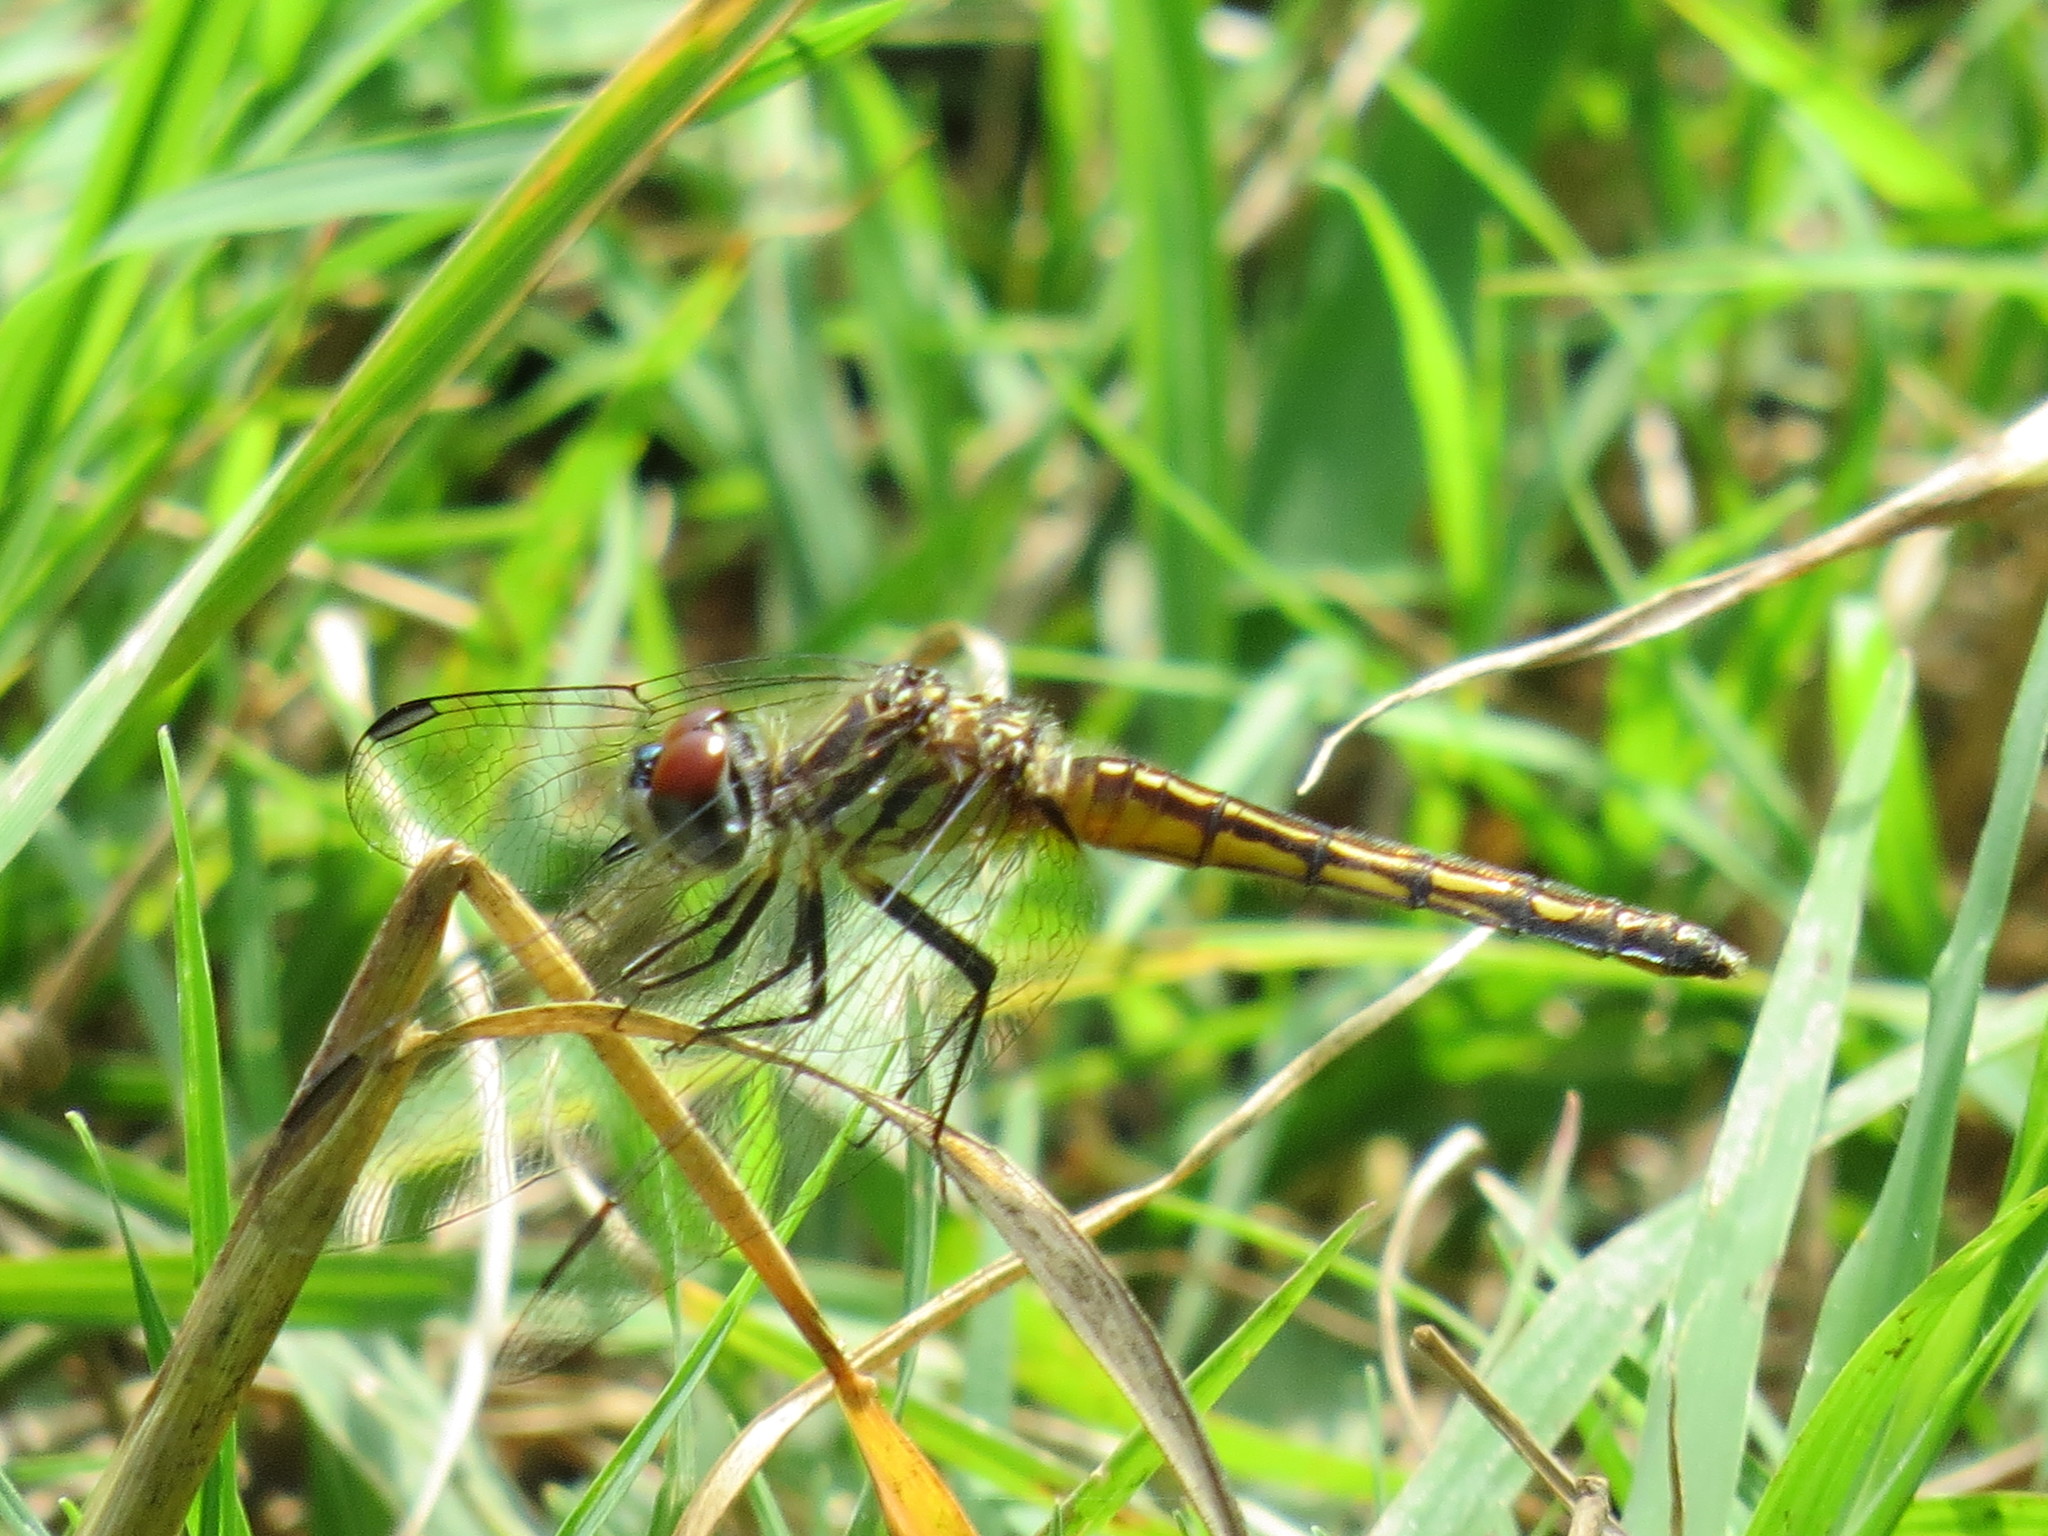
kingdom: Animalia
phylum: Arthropoda
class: Insecta
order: Odonata
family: Libellulidae
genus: Pachydiplax
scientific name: Pachydiplax longipennis
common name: Blue dasher
